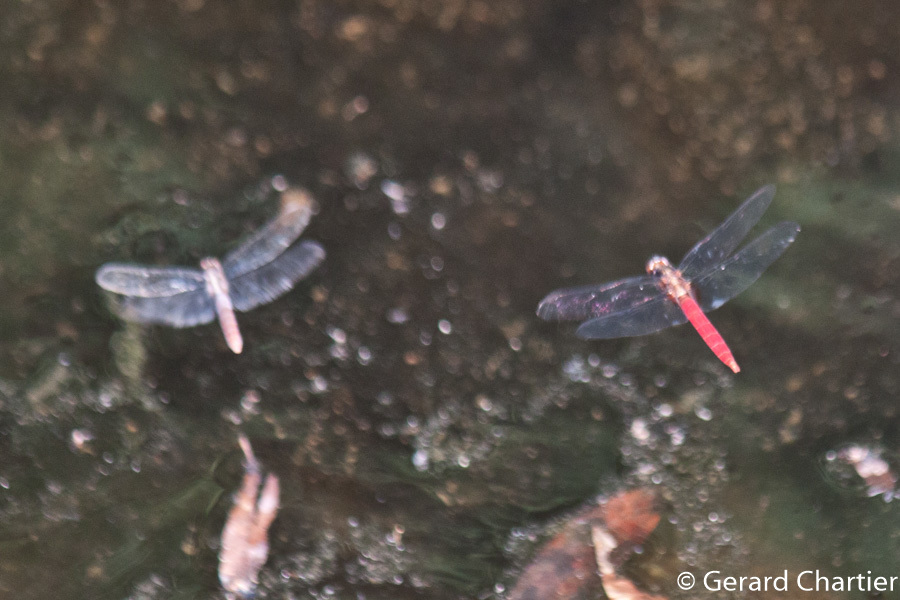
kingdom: Animalia
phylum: Arthropoda
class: Insecta
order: Odonata
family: Libellulidae
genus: Orthetrum
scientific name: Orthetrum chrysis
